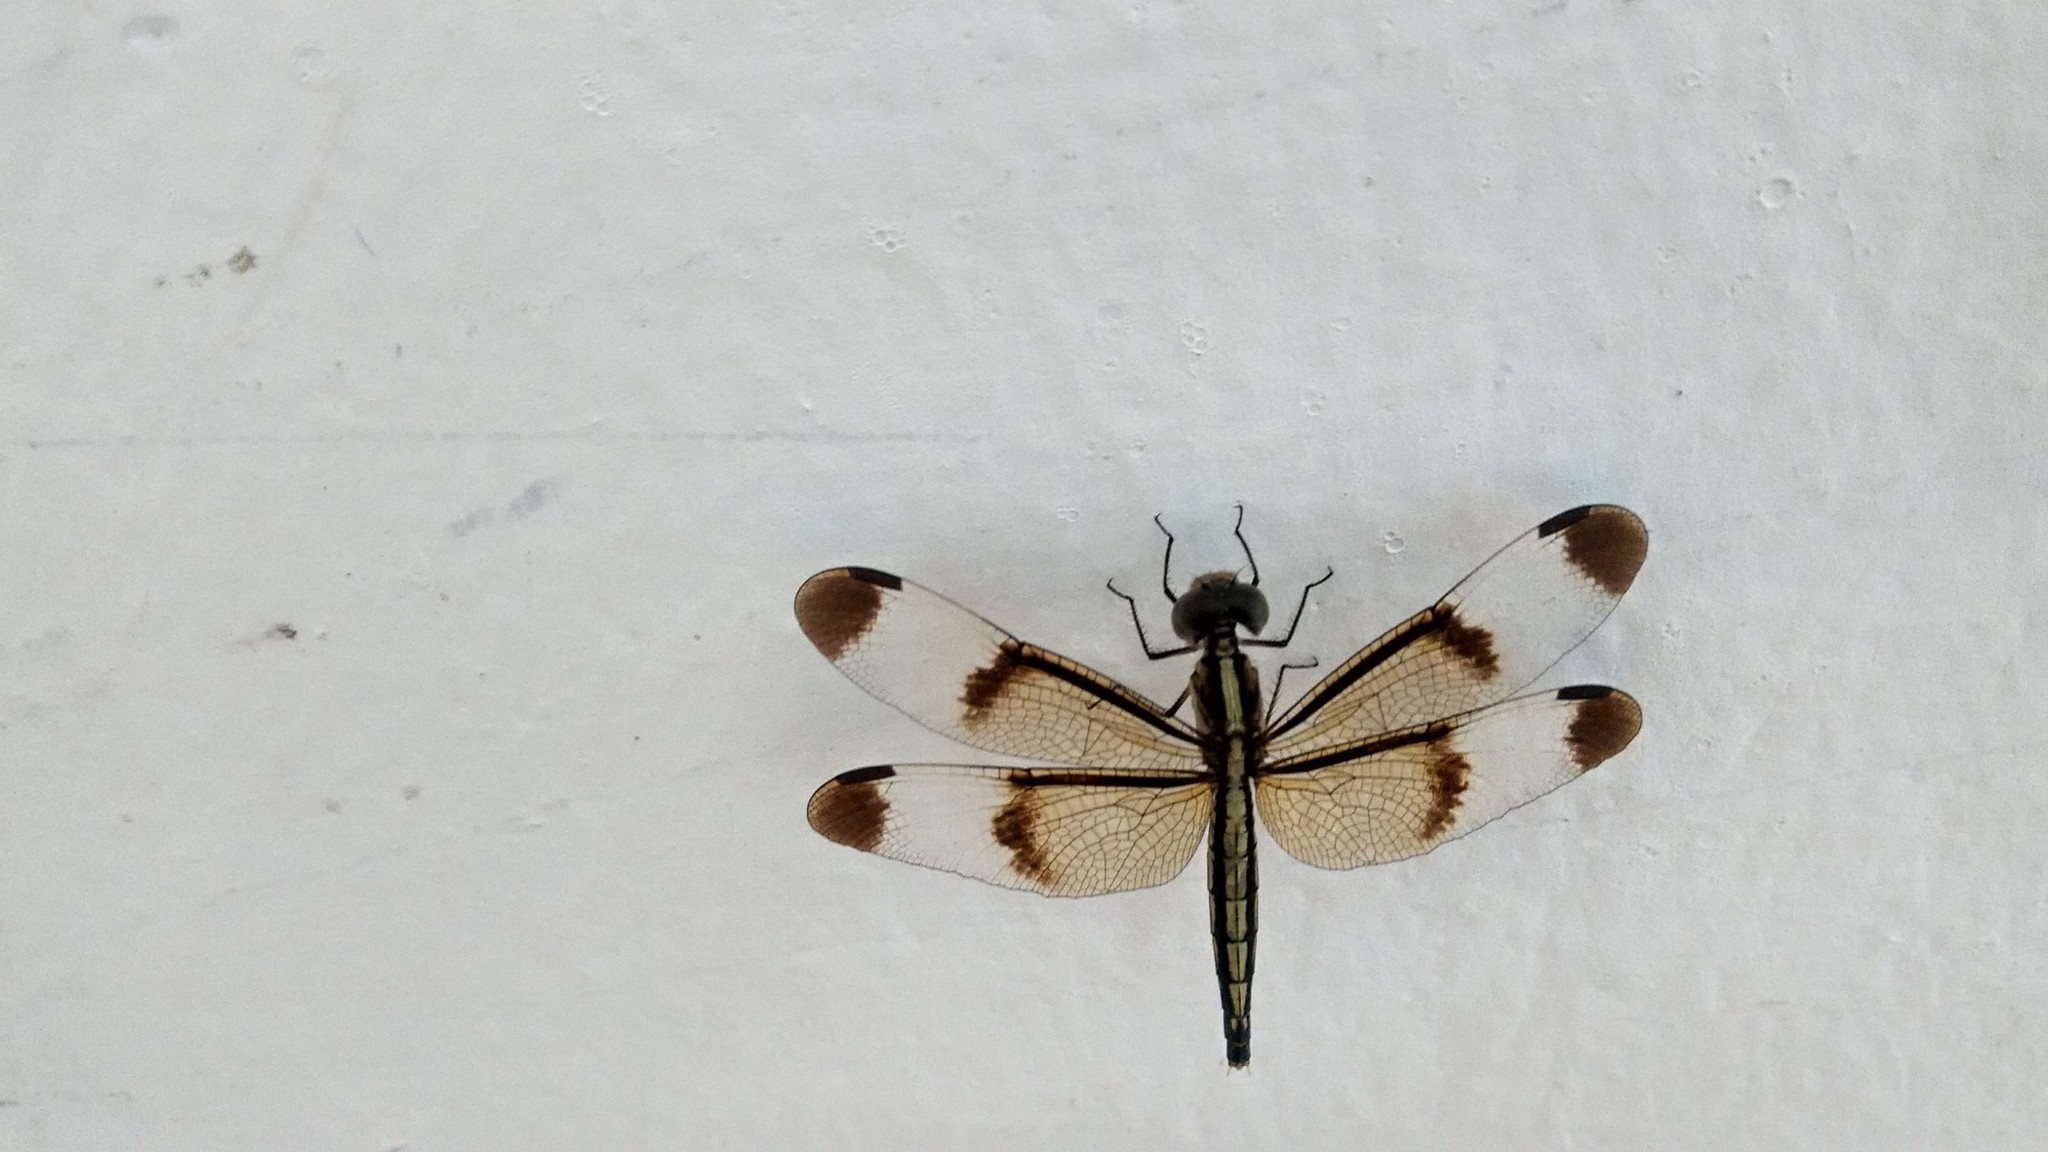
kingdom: Animalia
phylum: Arthropoda
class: Insecta
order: Odonata
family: Libellulidae
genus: Neurothemis
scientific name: Neurothemis tullia
